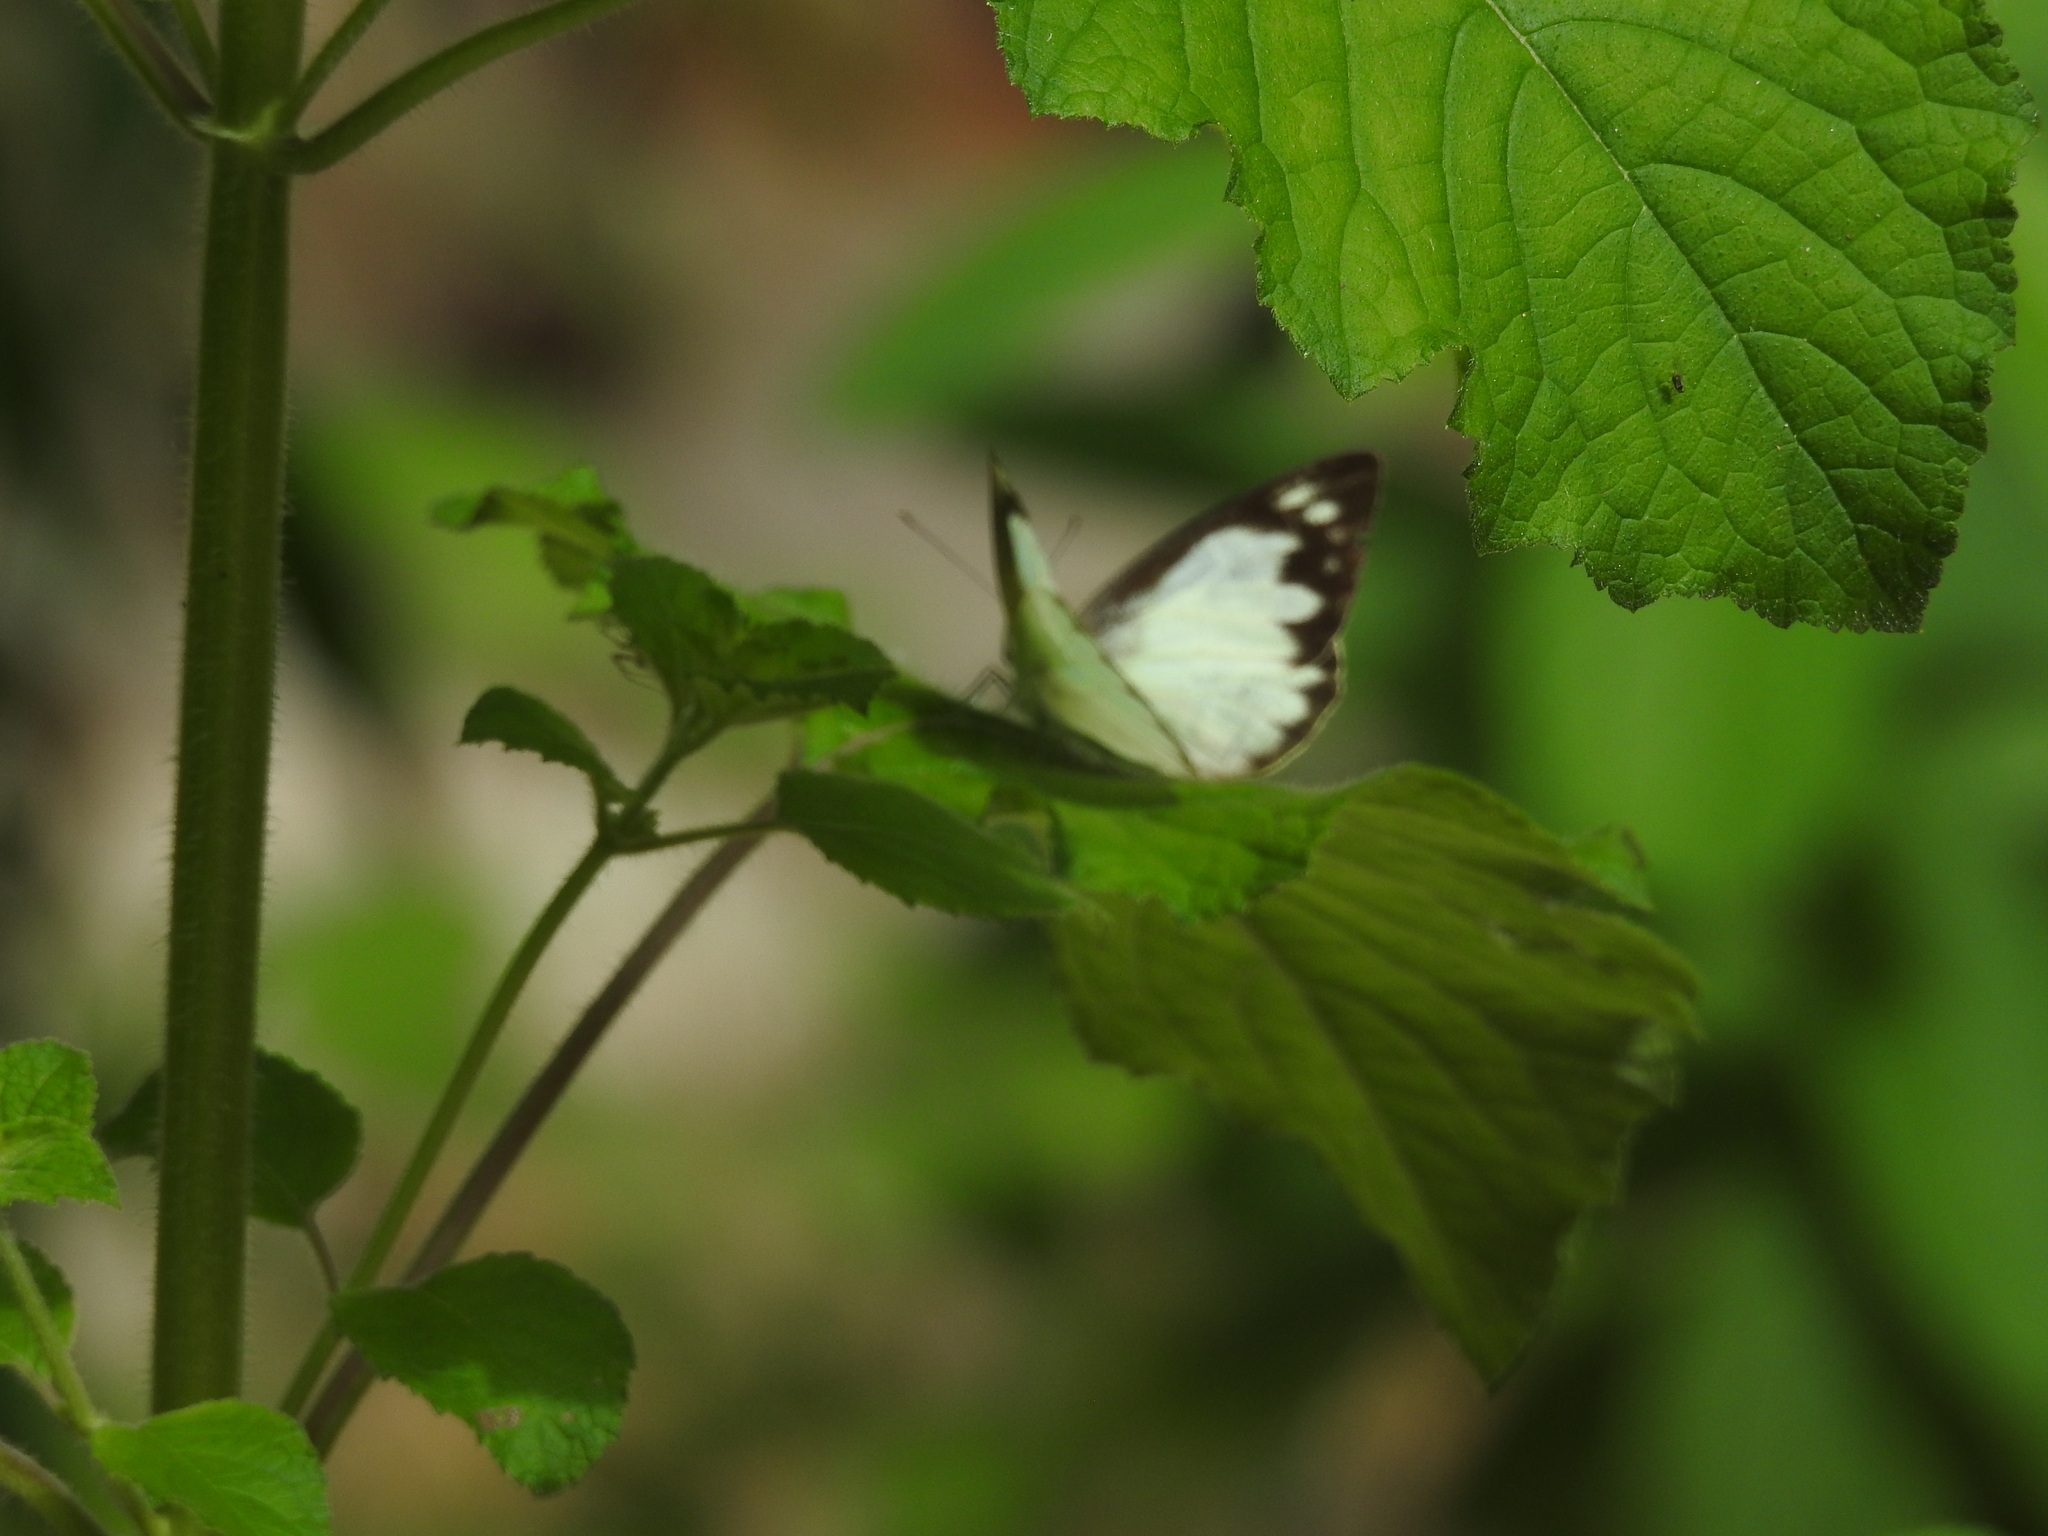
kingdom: Animalia
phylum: Arthropoda
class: Insecta
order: Lepidoptera
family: Pieridae
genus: Appias
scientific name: Appias albina
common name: Common albatross
